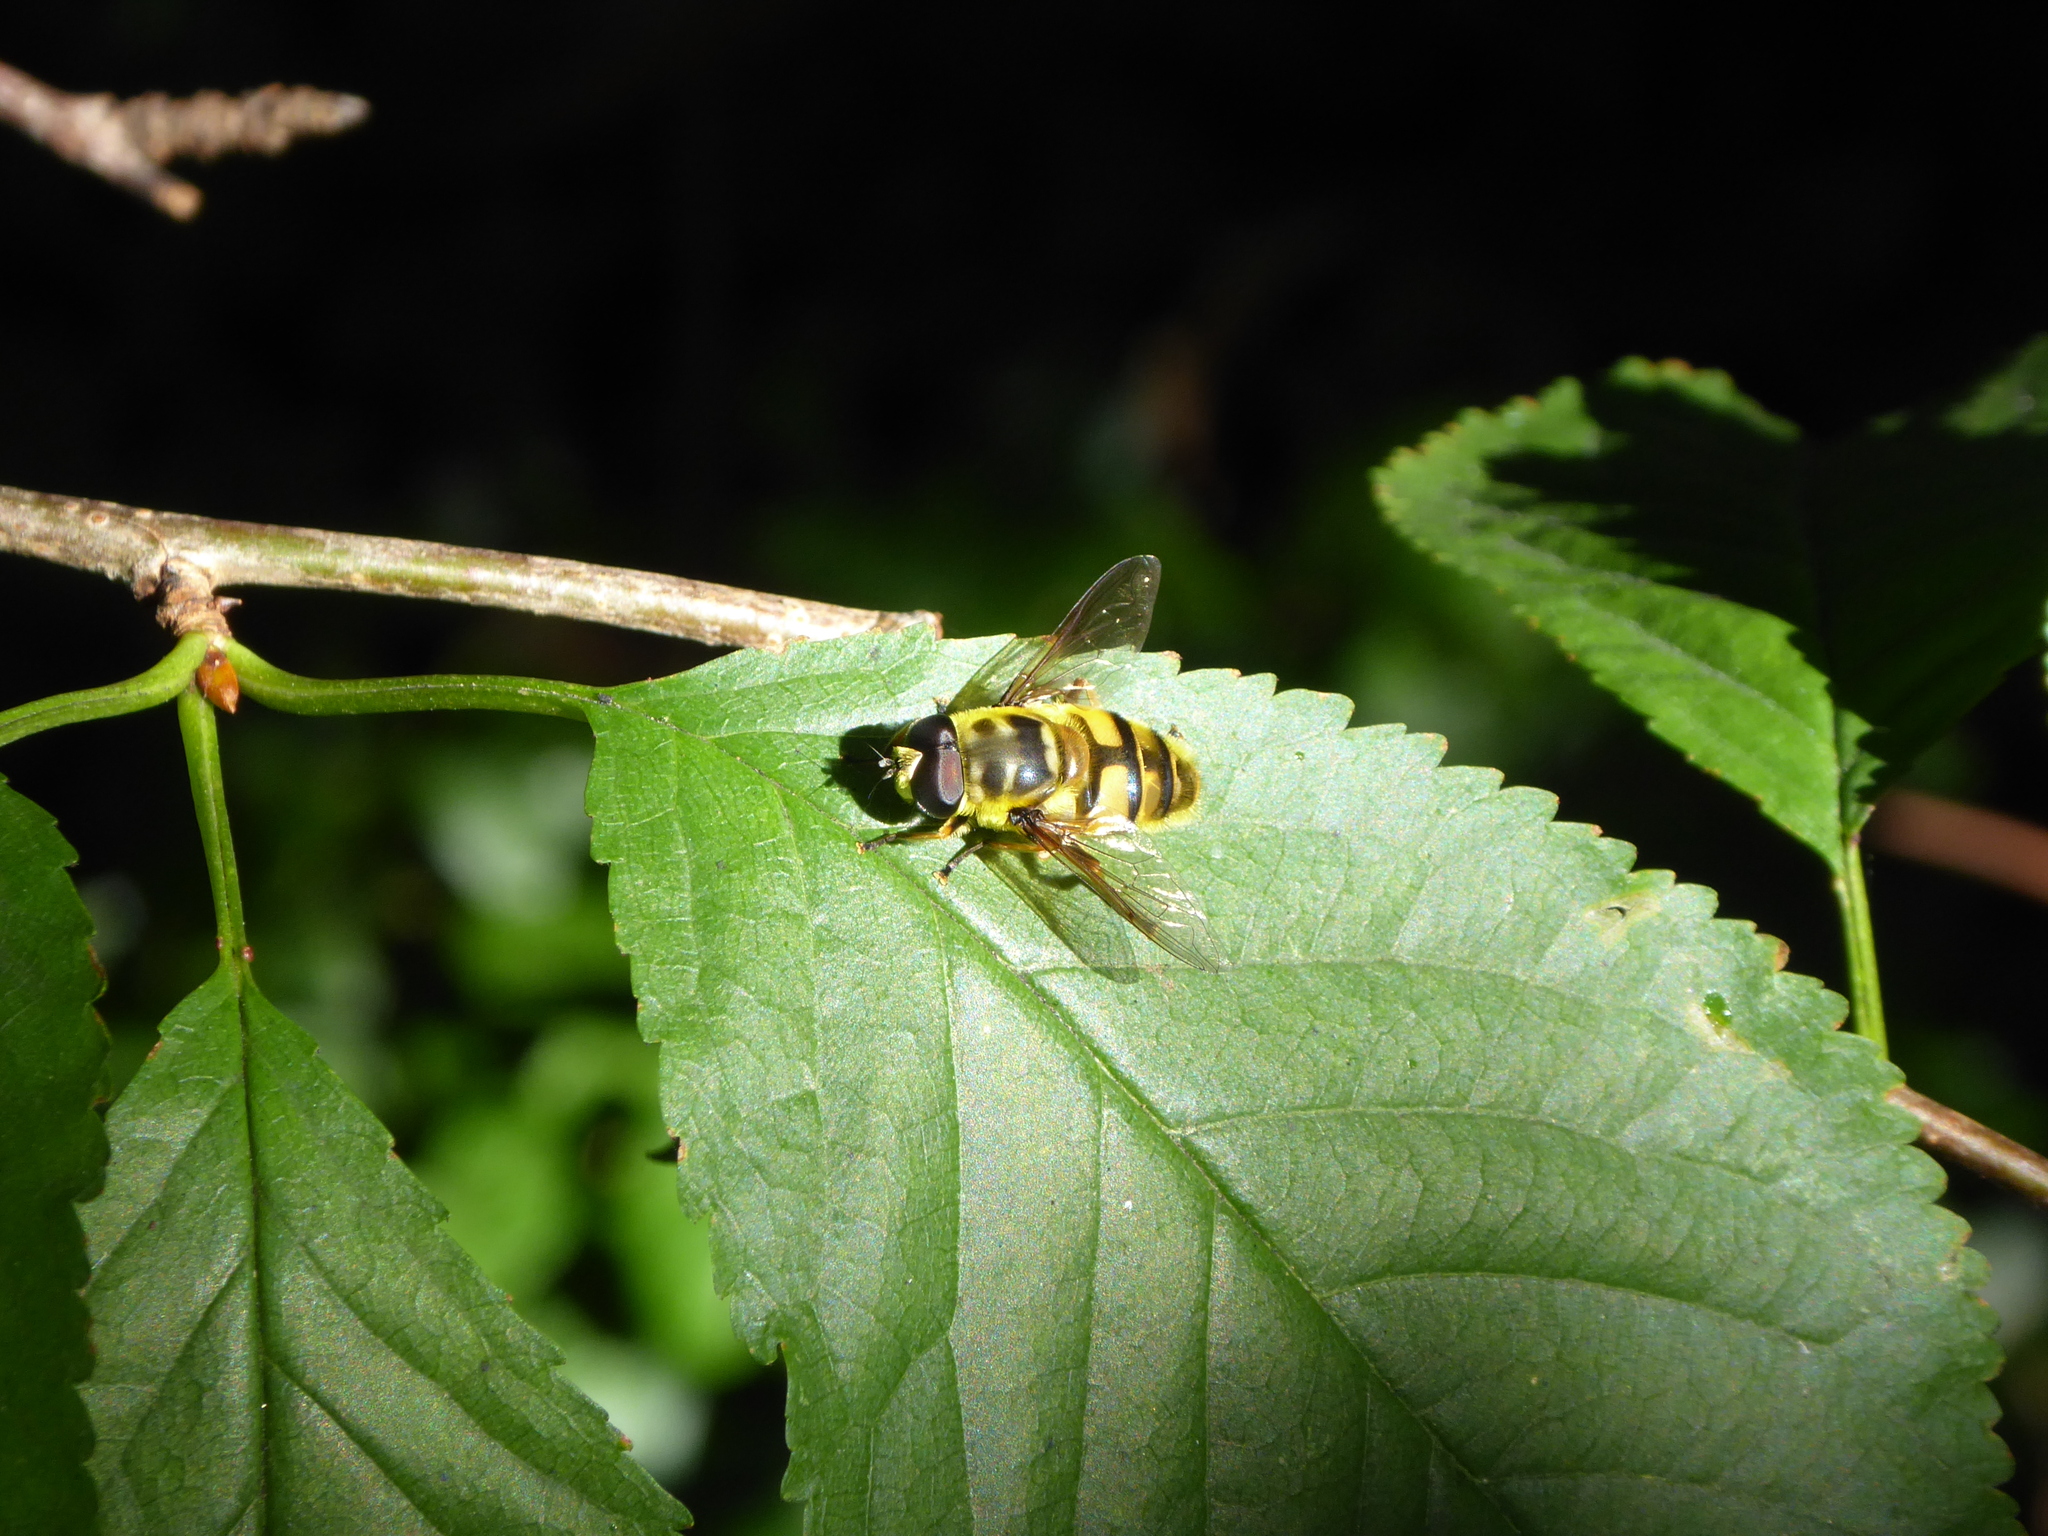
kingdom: Animalia
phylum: Arthropoda
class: Insecta
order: Diptera
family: Syrphidae
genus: Myathropa
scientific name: Myathropa florea
